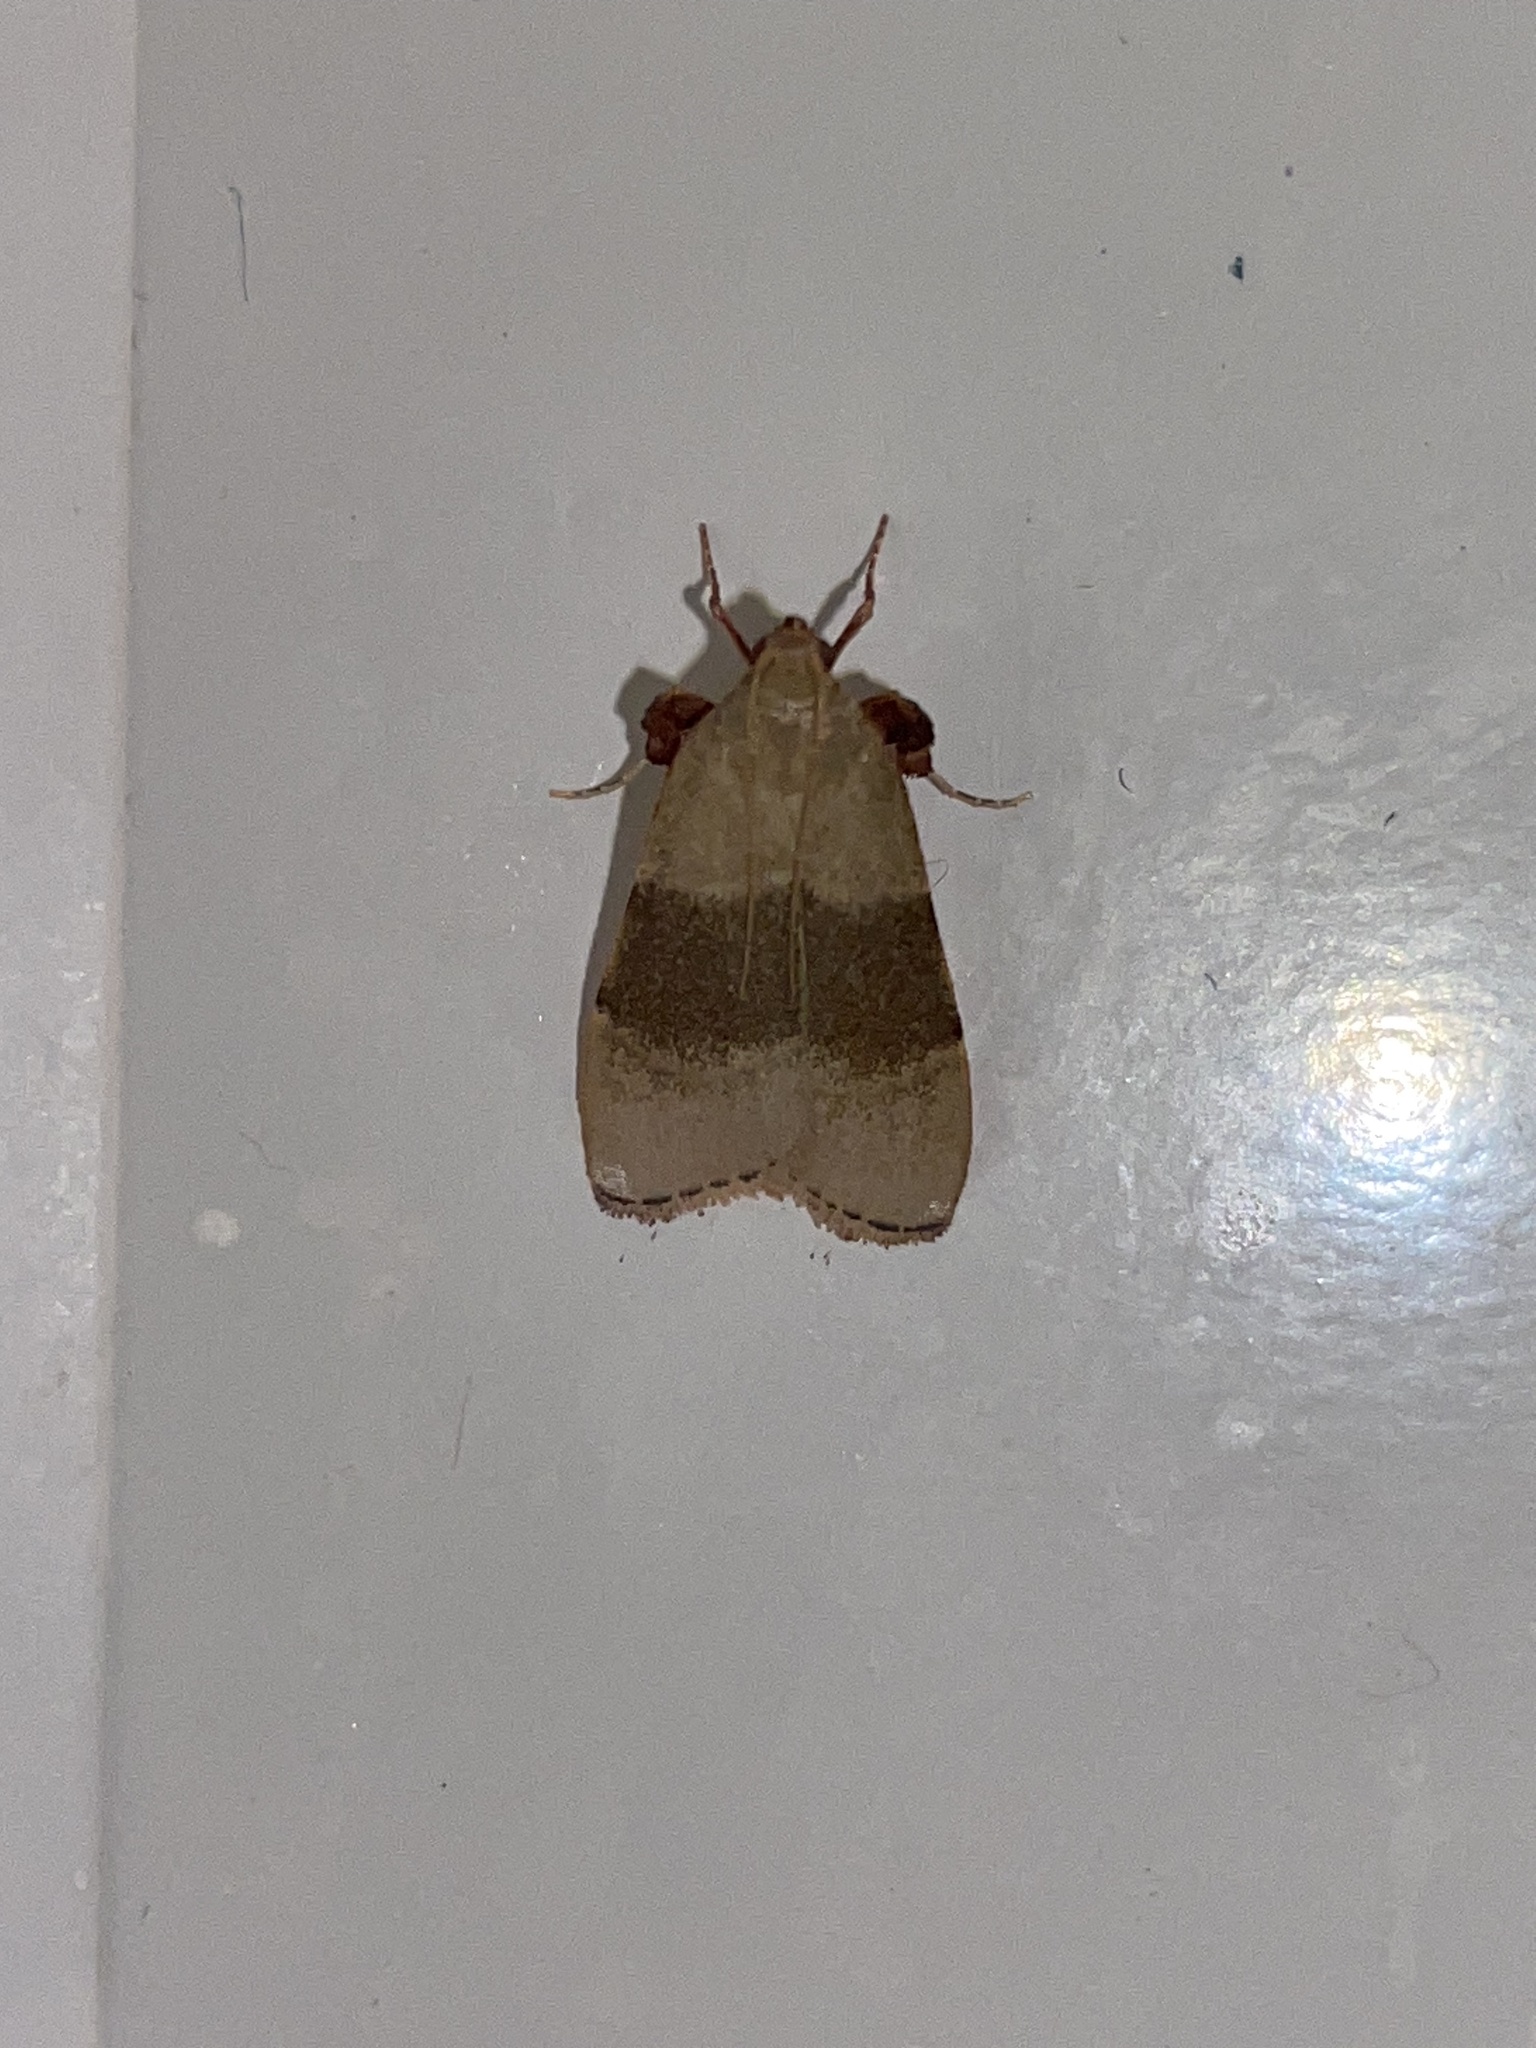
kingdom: Animalia
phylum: Arthropoda
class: Insecta
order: Lepidoptera
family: Pyralidae
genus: Basacallis
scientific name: Basacallis tarachodes
